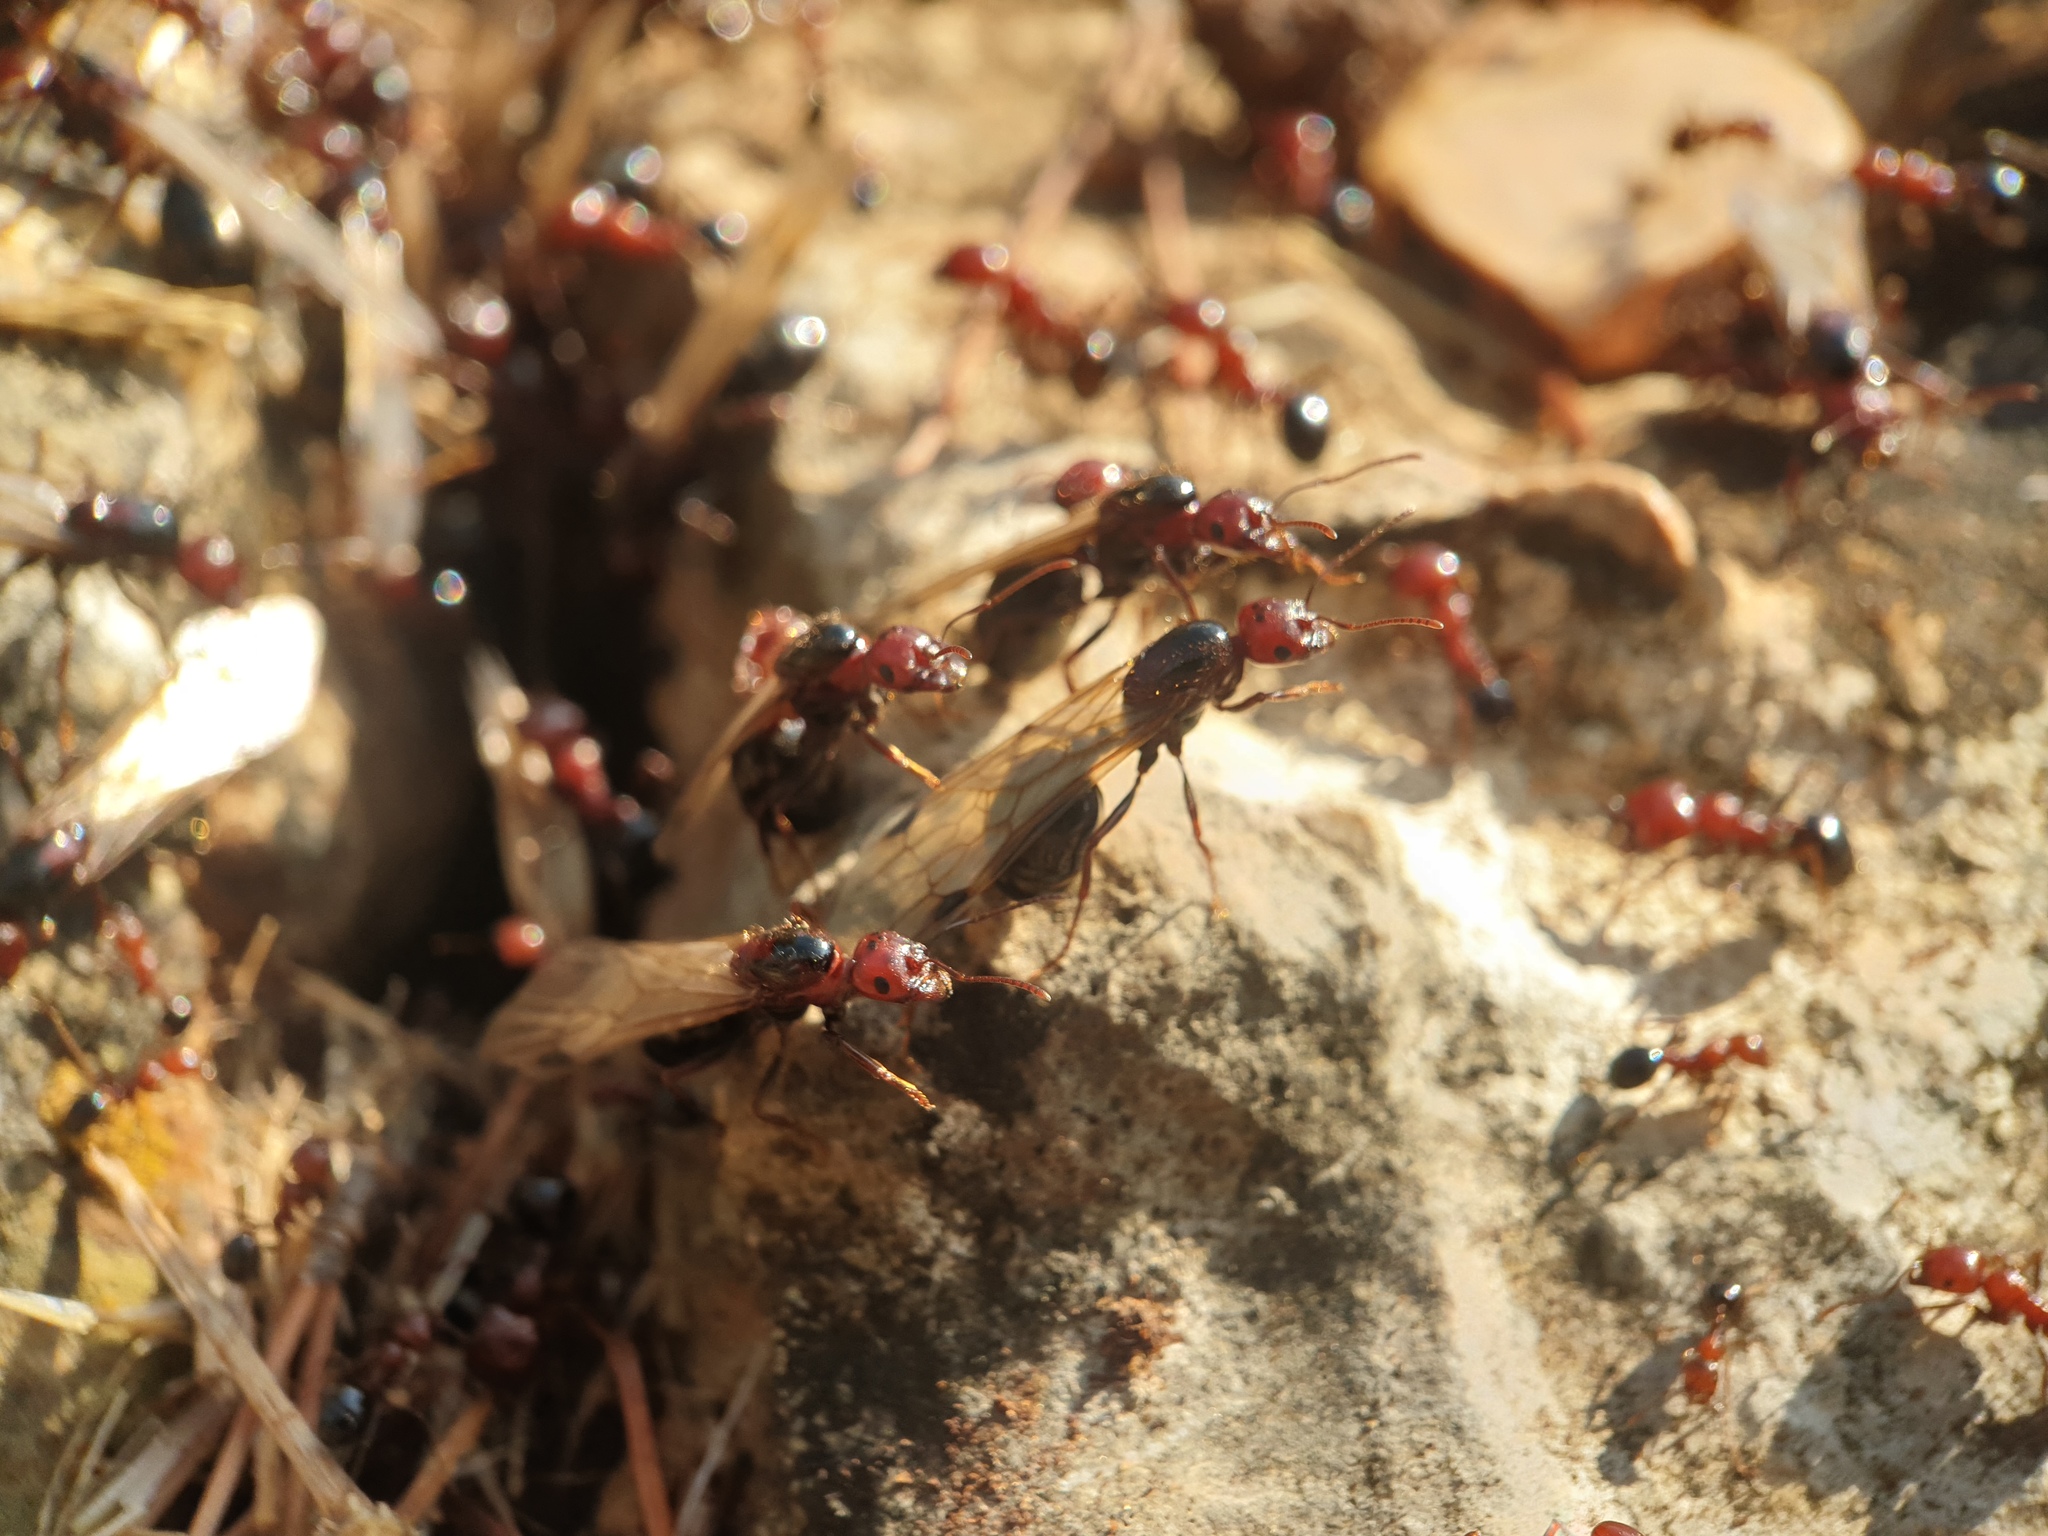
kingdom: Animalia
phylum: Arthropoda
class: Insecta
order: Hymenoptera
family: Formicidae
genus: Messor
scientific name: Messor hebraeus
